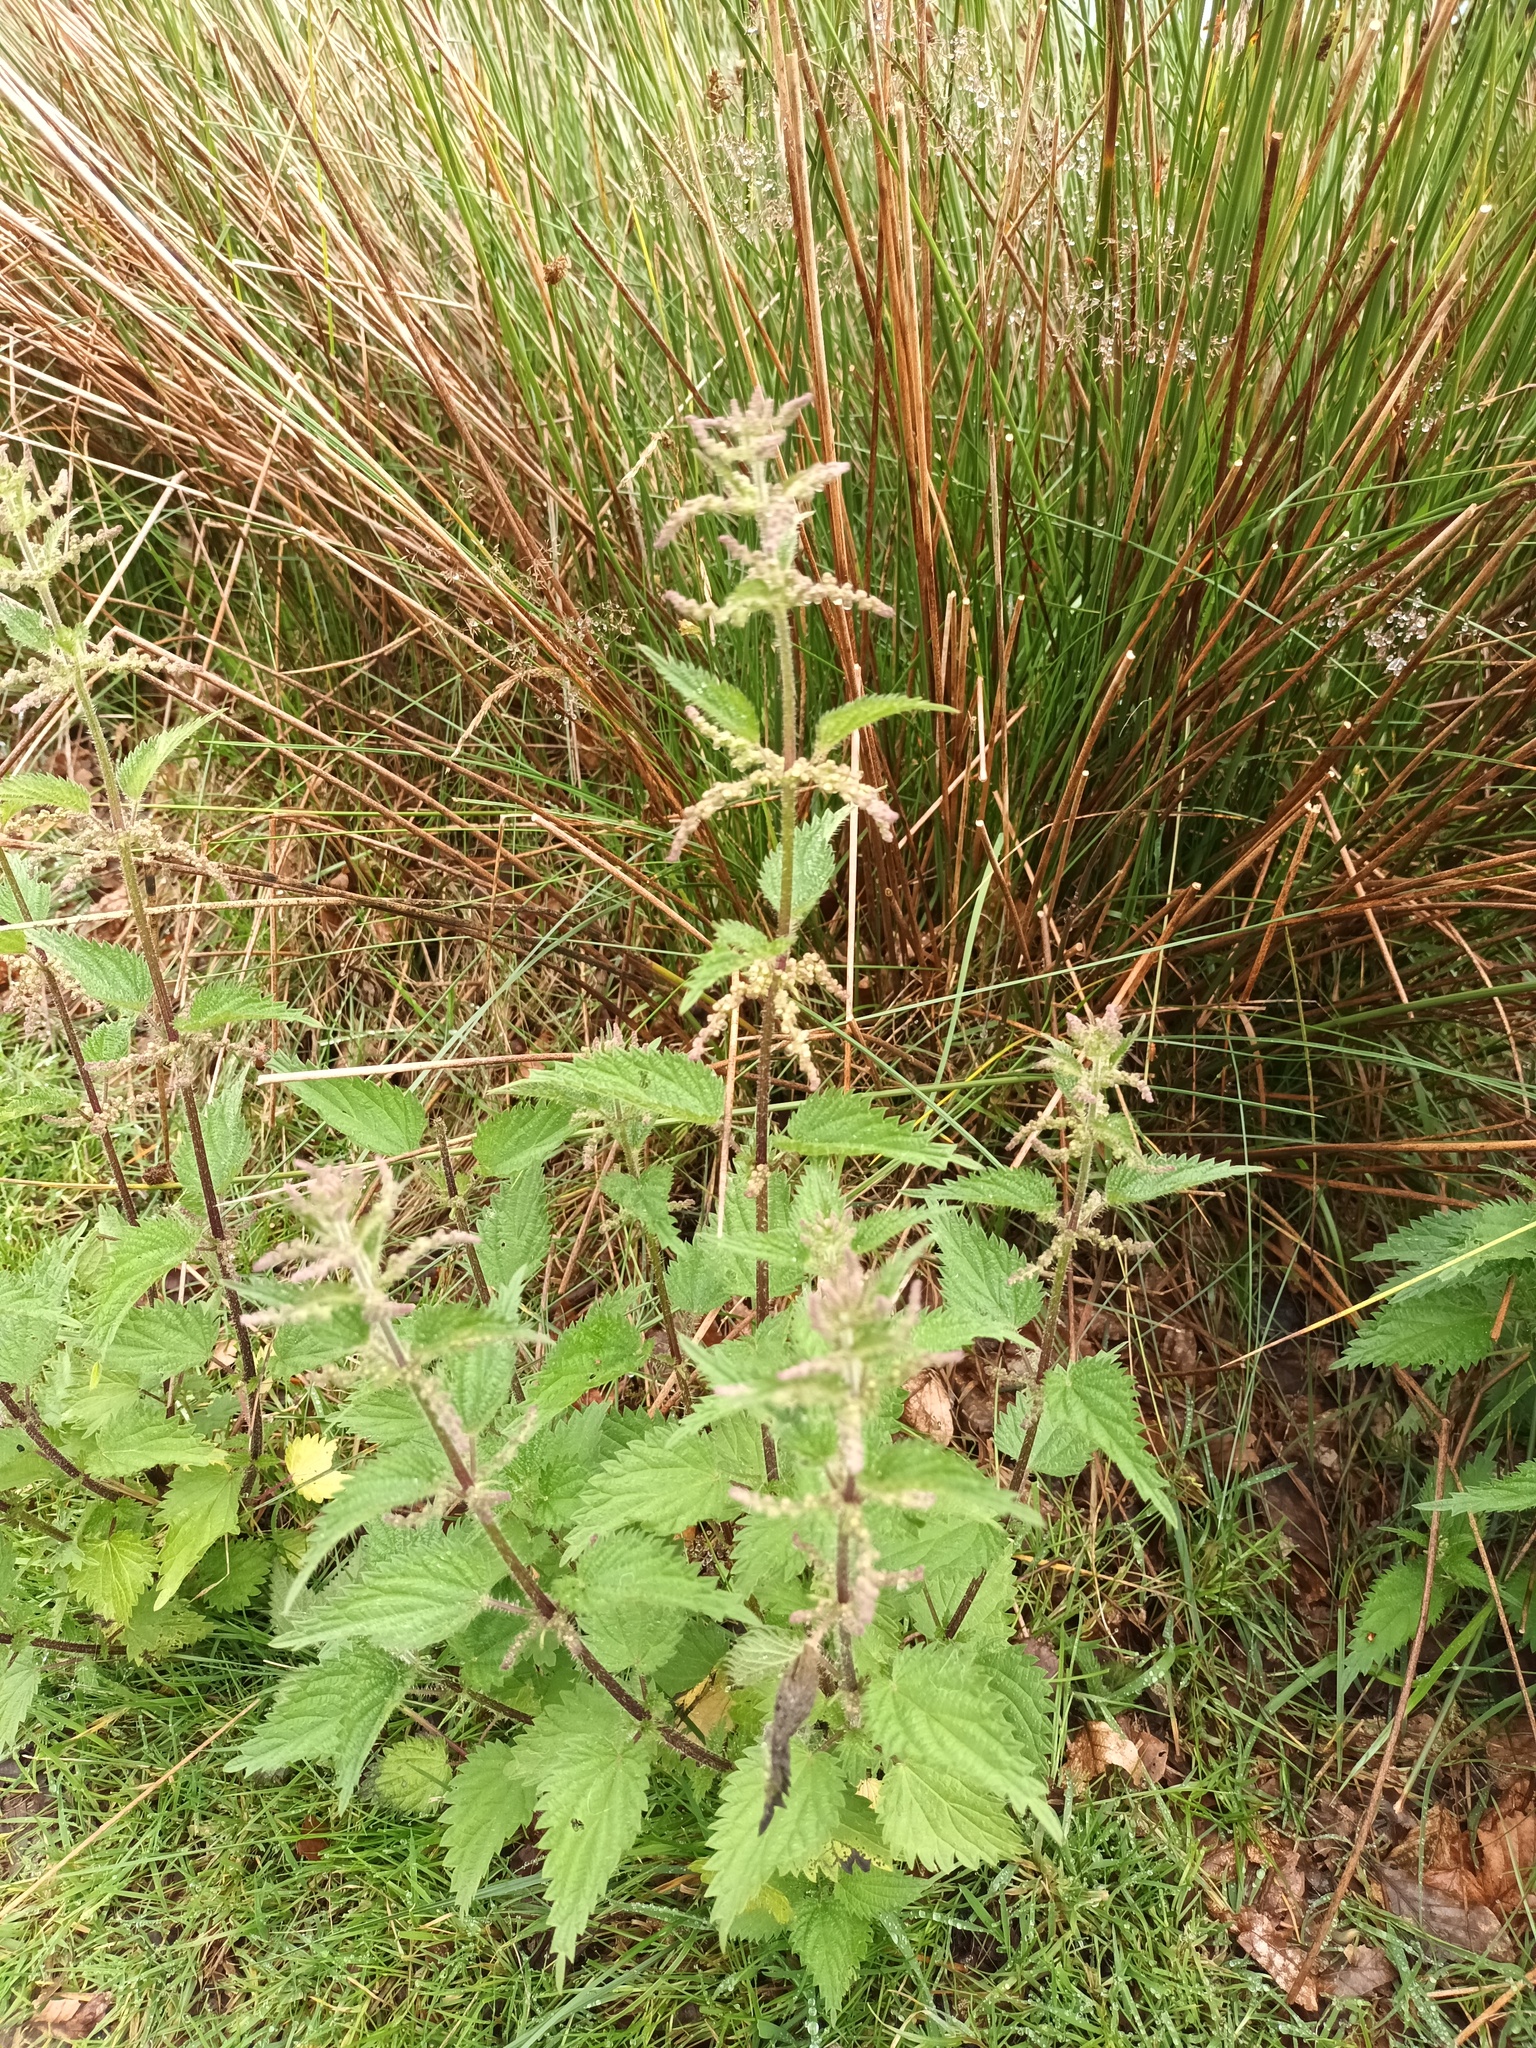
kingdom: Plantae
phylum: Tracheophyta
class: Magnoliopsida
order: Rosales
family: Urticaceae
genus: Urtica
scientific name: Urtica dioica
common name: Common nettle
